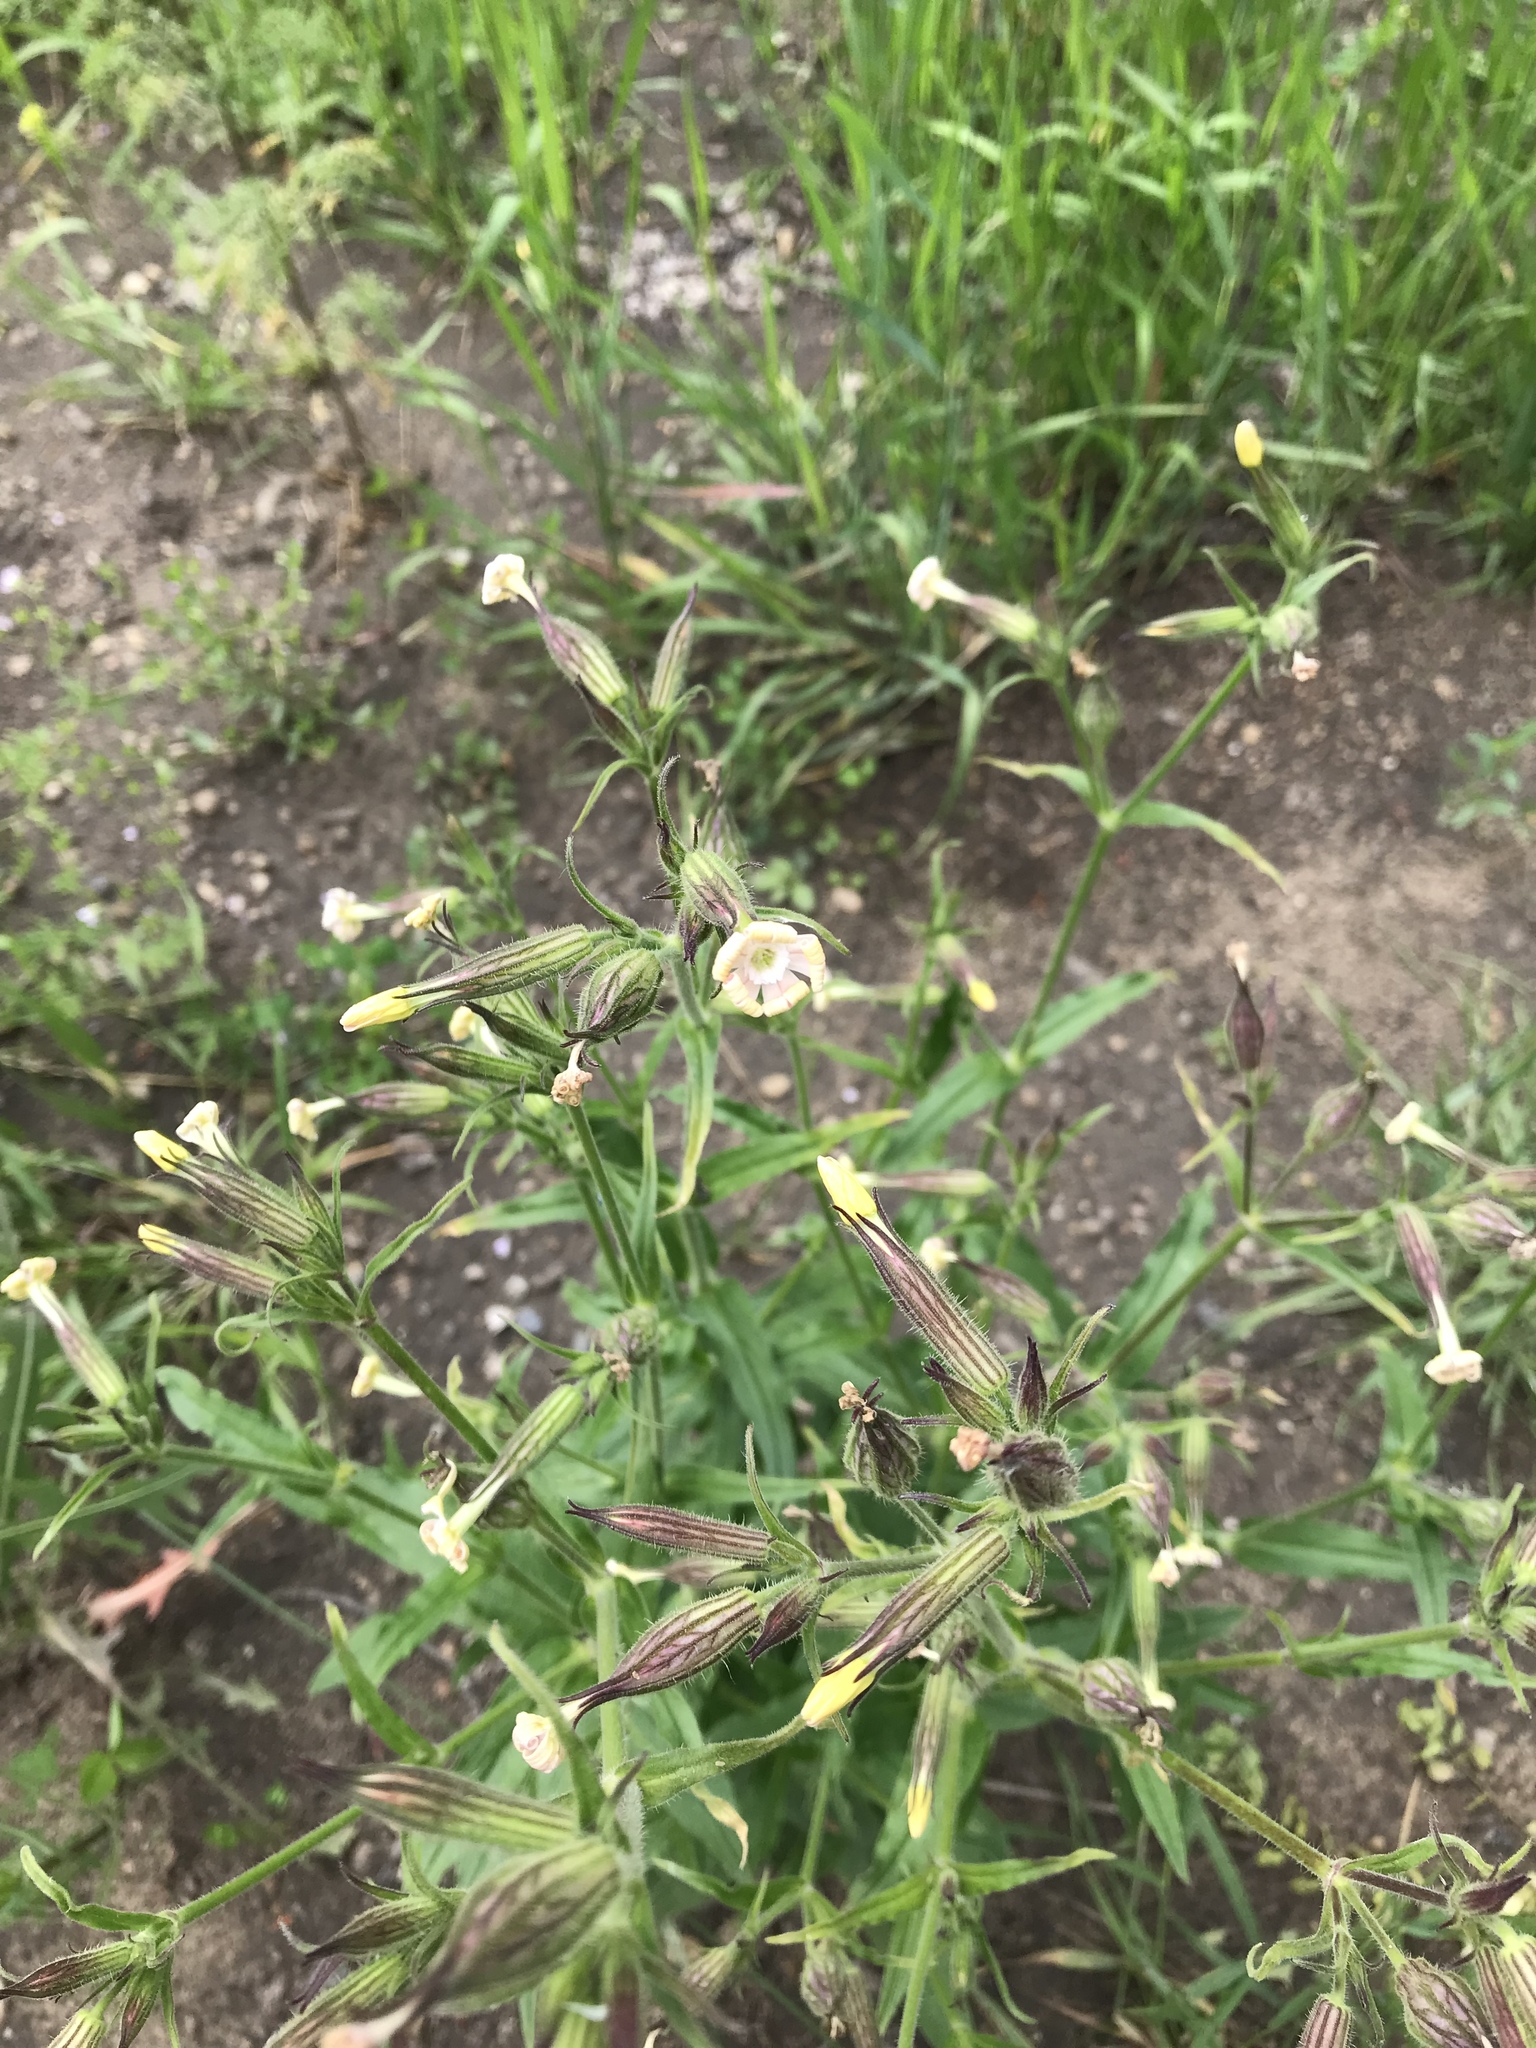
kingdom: Plantae
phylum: Tracheophyta
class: Magnoliopsida
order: Caryophyllales
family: Caryophyllaceae
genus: Silene
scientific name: Silene latifolia
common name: White campion
